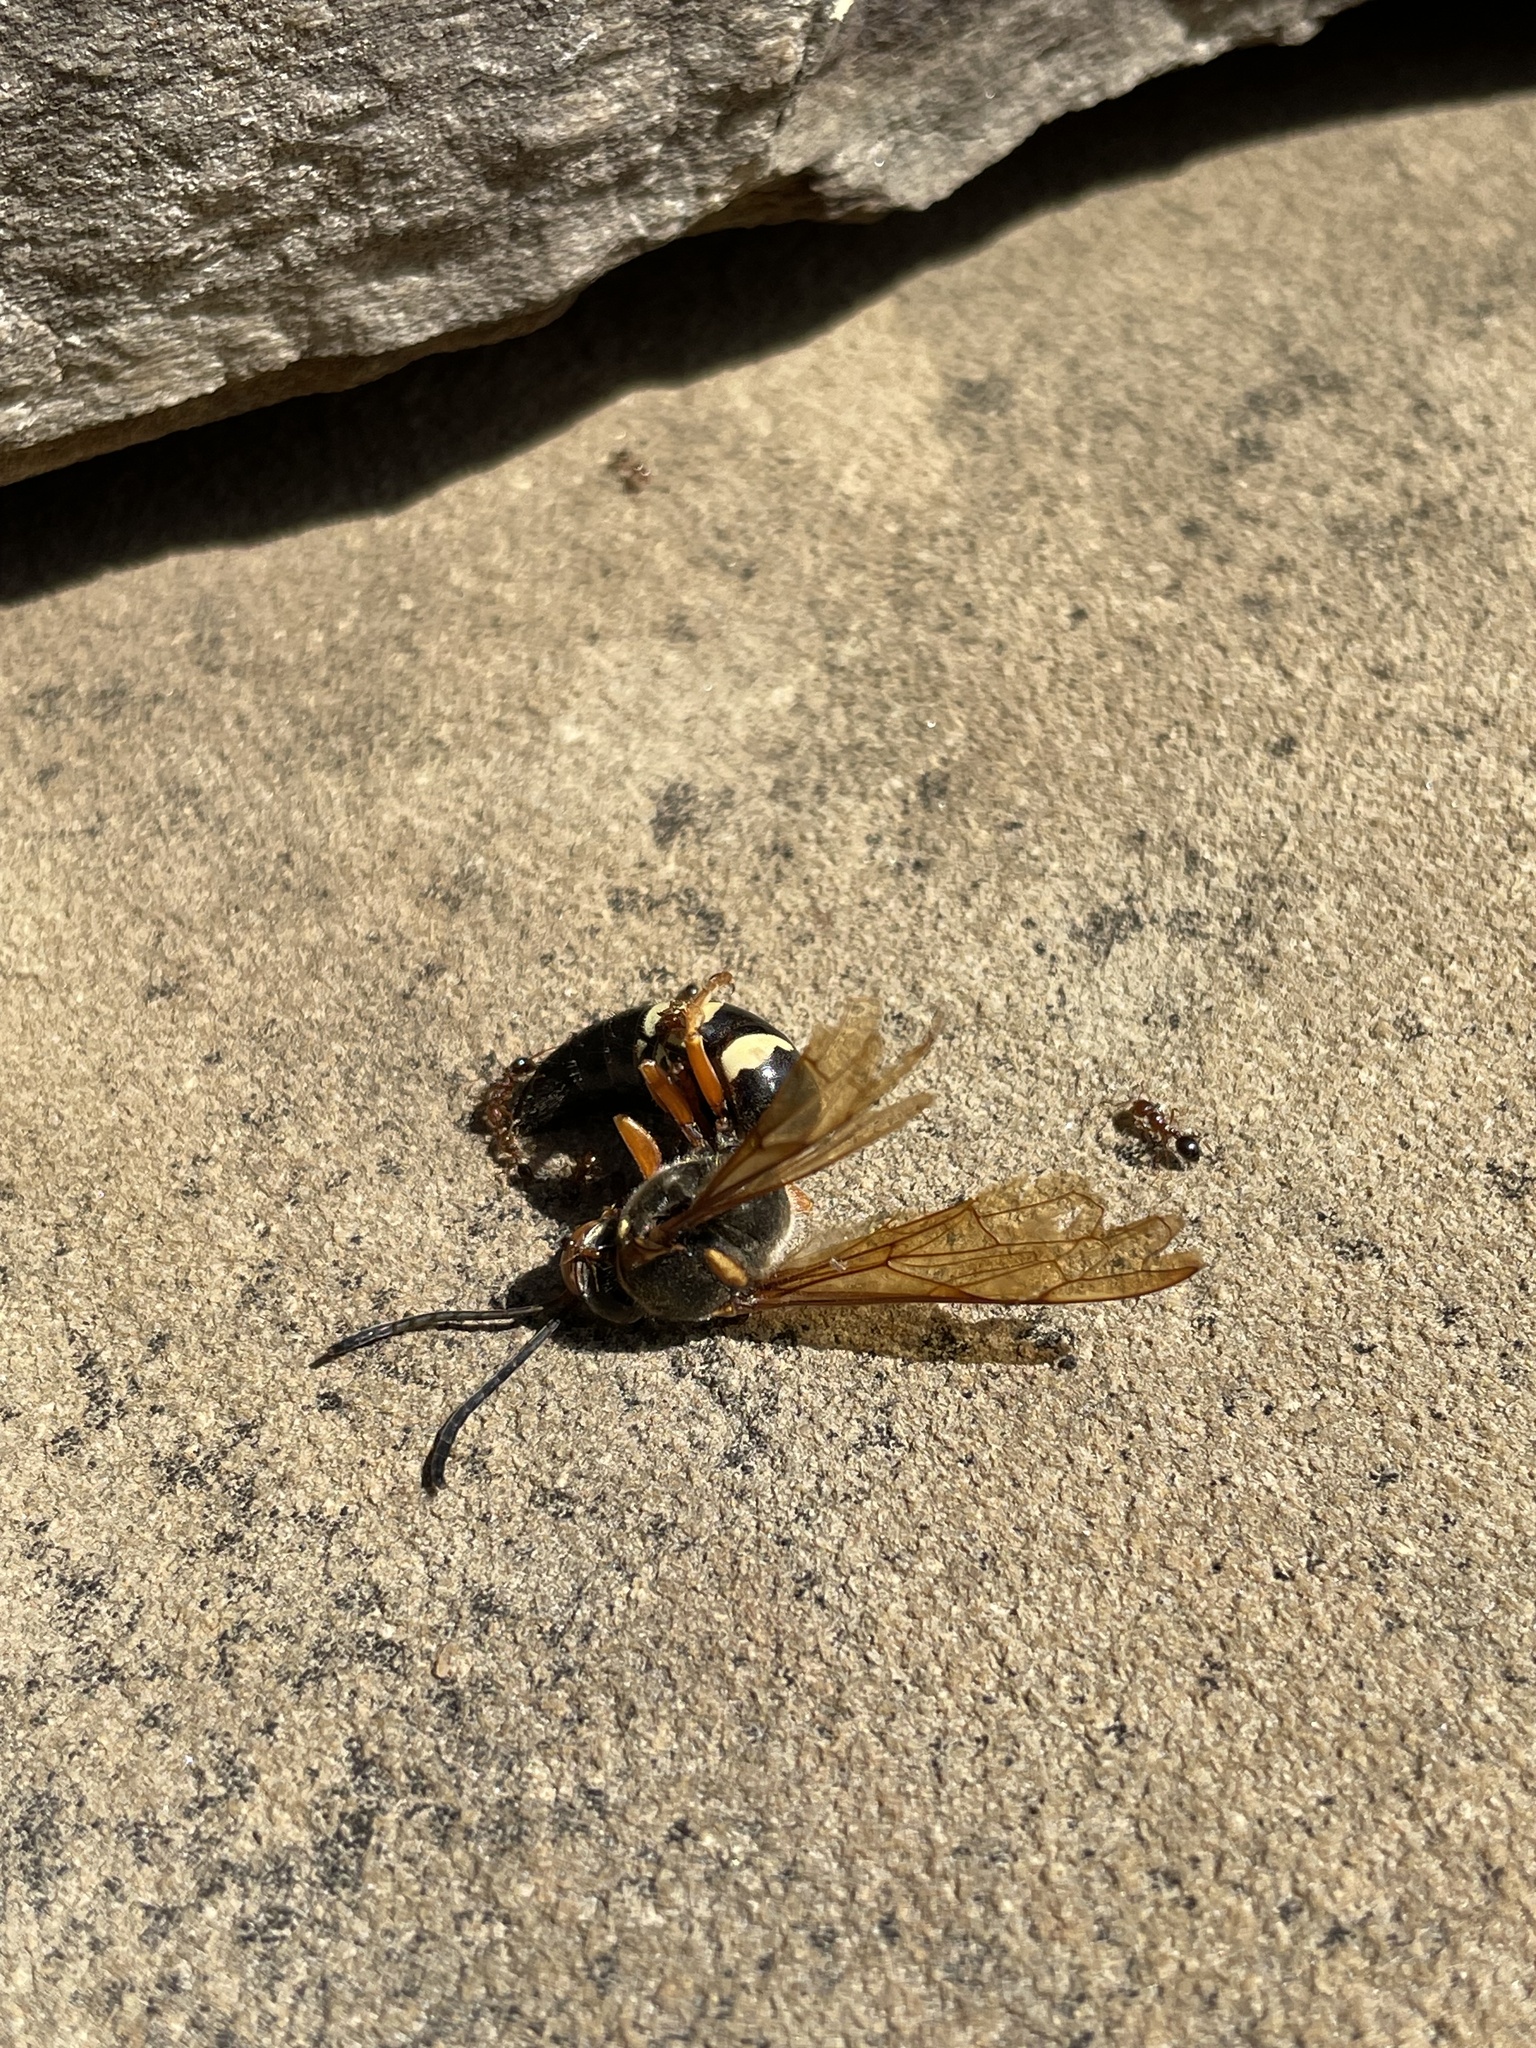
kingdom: Animalia
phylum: Arthropoda
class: Insecta
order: Hymenoptera
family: Crabronidae
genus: Sphecius
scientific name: Sphecius speciosus
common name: Cicada killer
